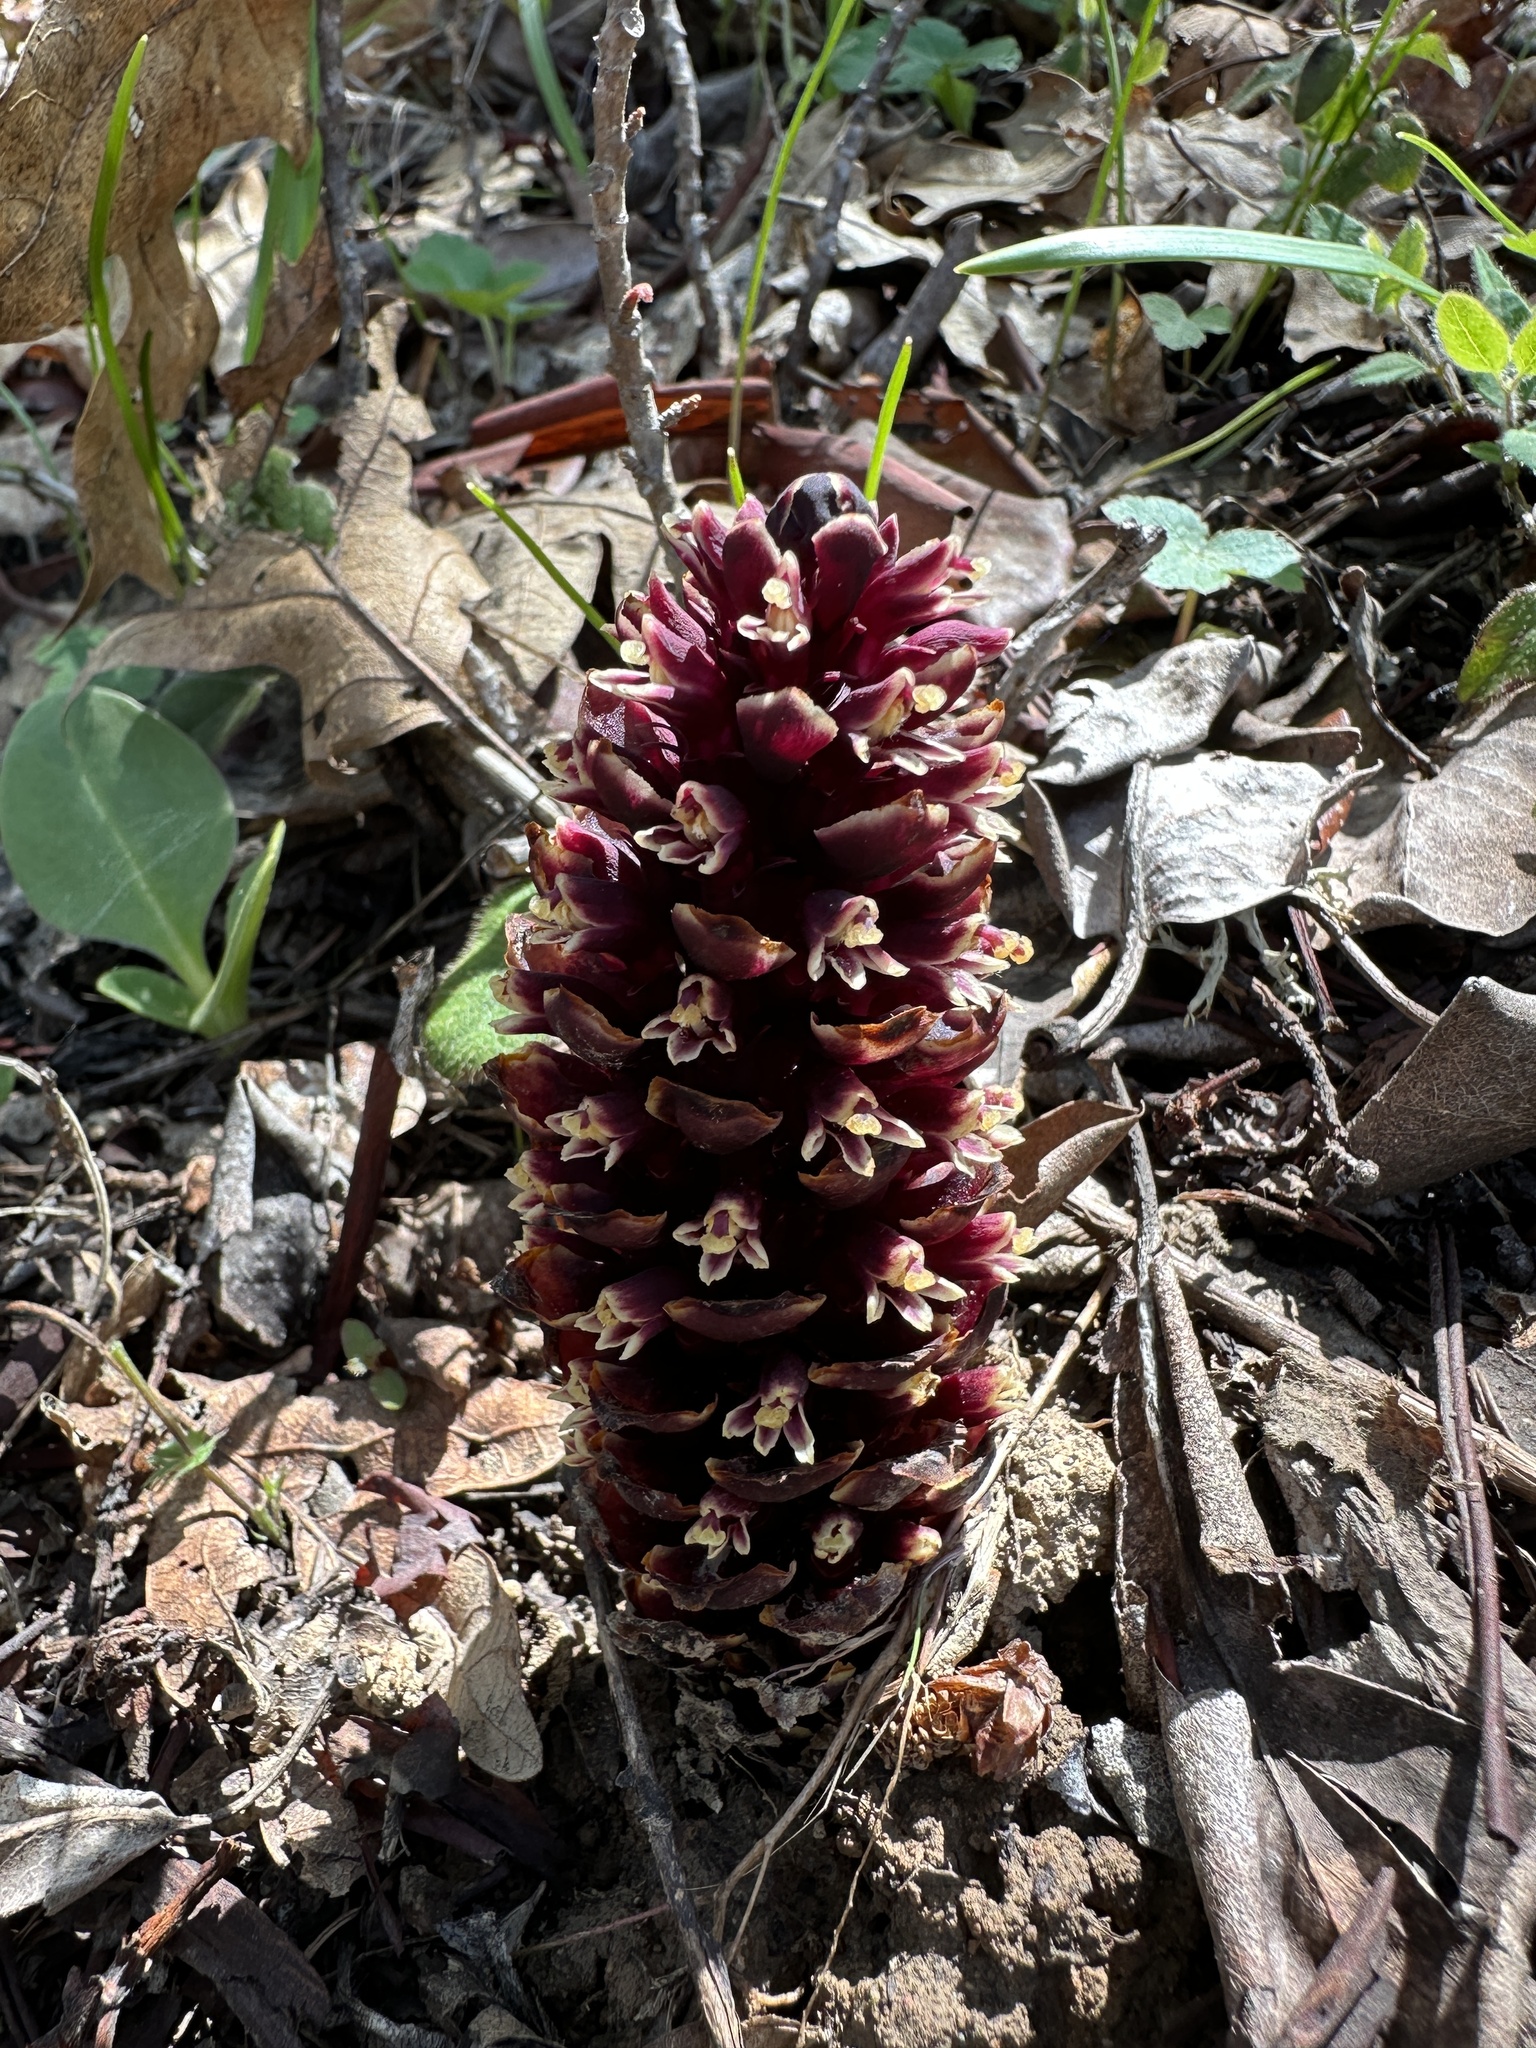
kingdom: Plantae
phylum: Tracheophyta
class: Magnoliopsida
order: Lamiales
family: Orobanchaceae
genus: Kopsiopsis
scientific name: Kopsiopsis strobilacea
